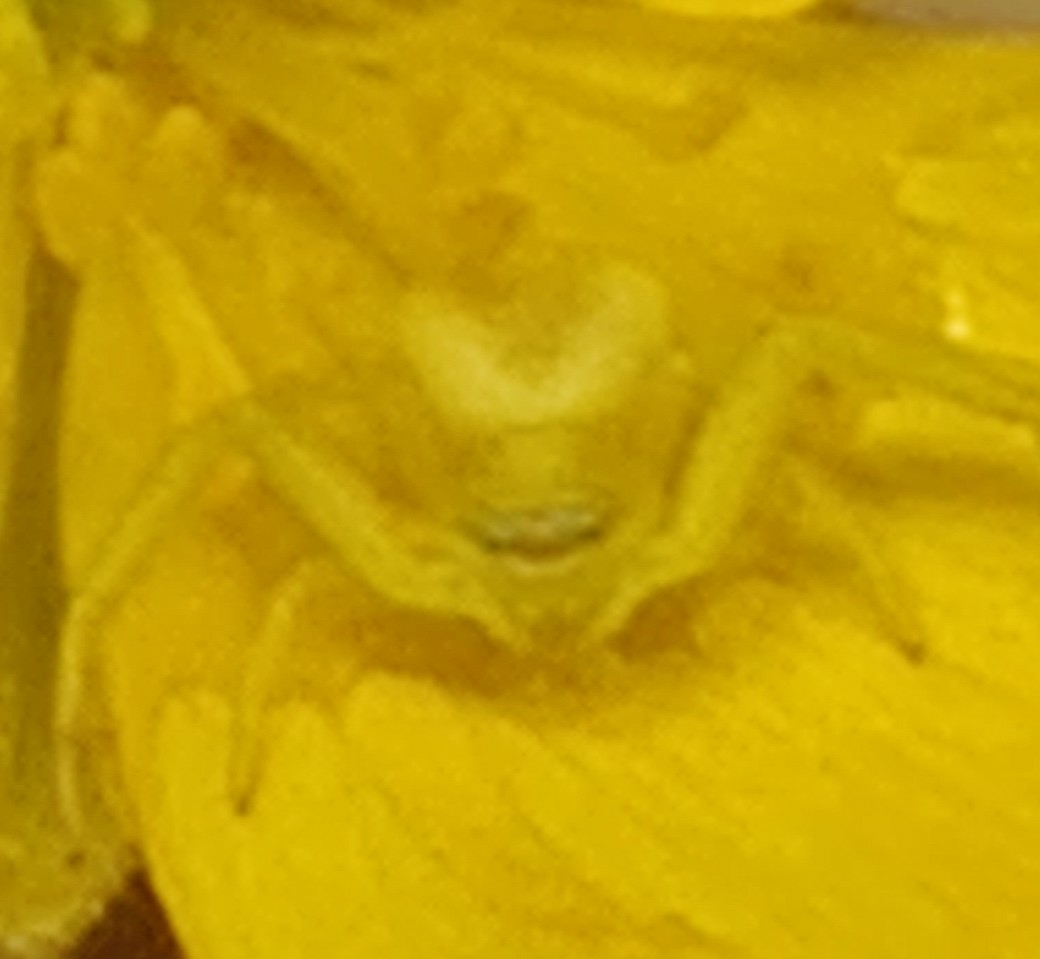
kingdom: Animalia
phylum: Arthropoda
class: Arachnida
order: Araneae
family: Thomisidae
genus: Misumena
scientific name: Misumena vatia
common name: Goldenrod crab spider
